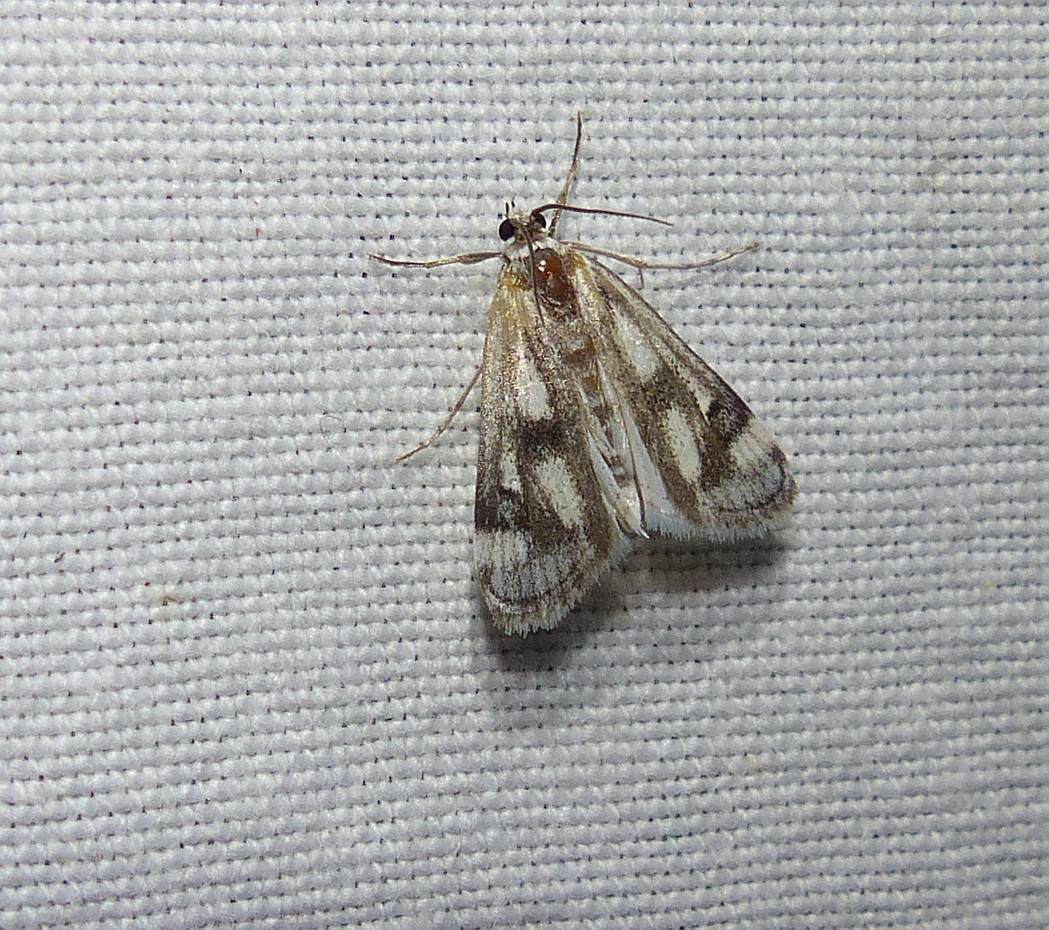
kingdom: Animalia
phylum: Arthropoda
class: Insecta
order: Lepidoptera
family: Crambidae
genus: Parapoynx
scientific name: Parapoynx maculalis
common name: Polymorphic pondweed moth
